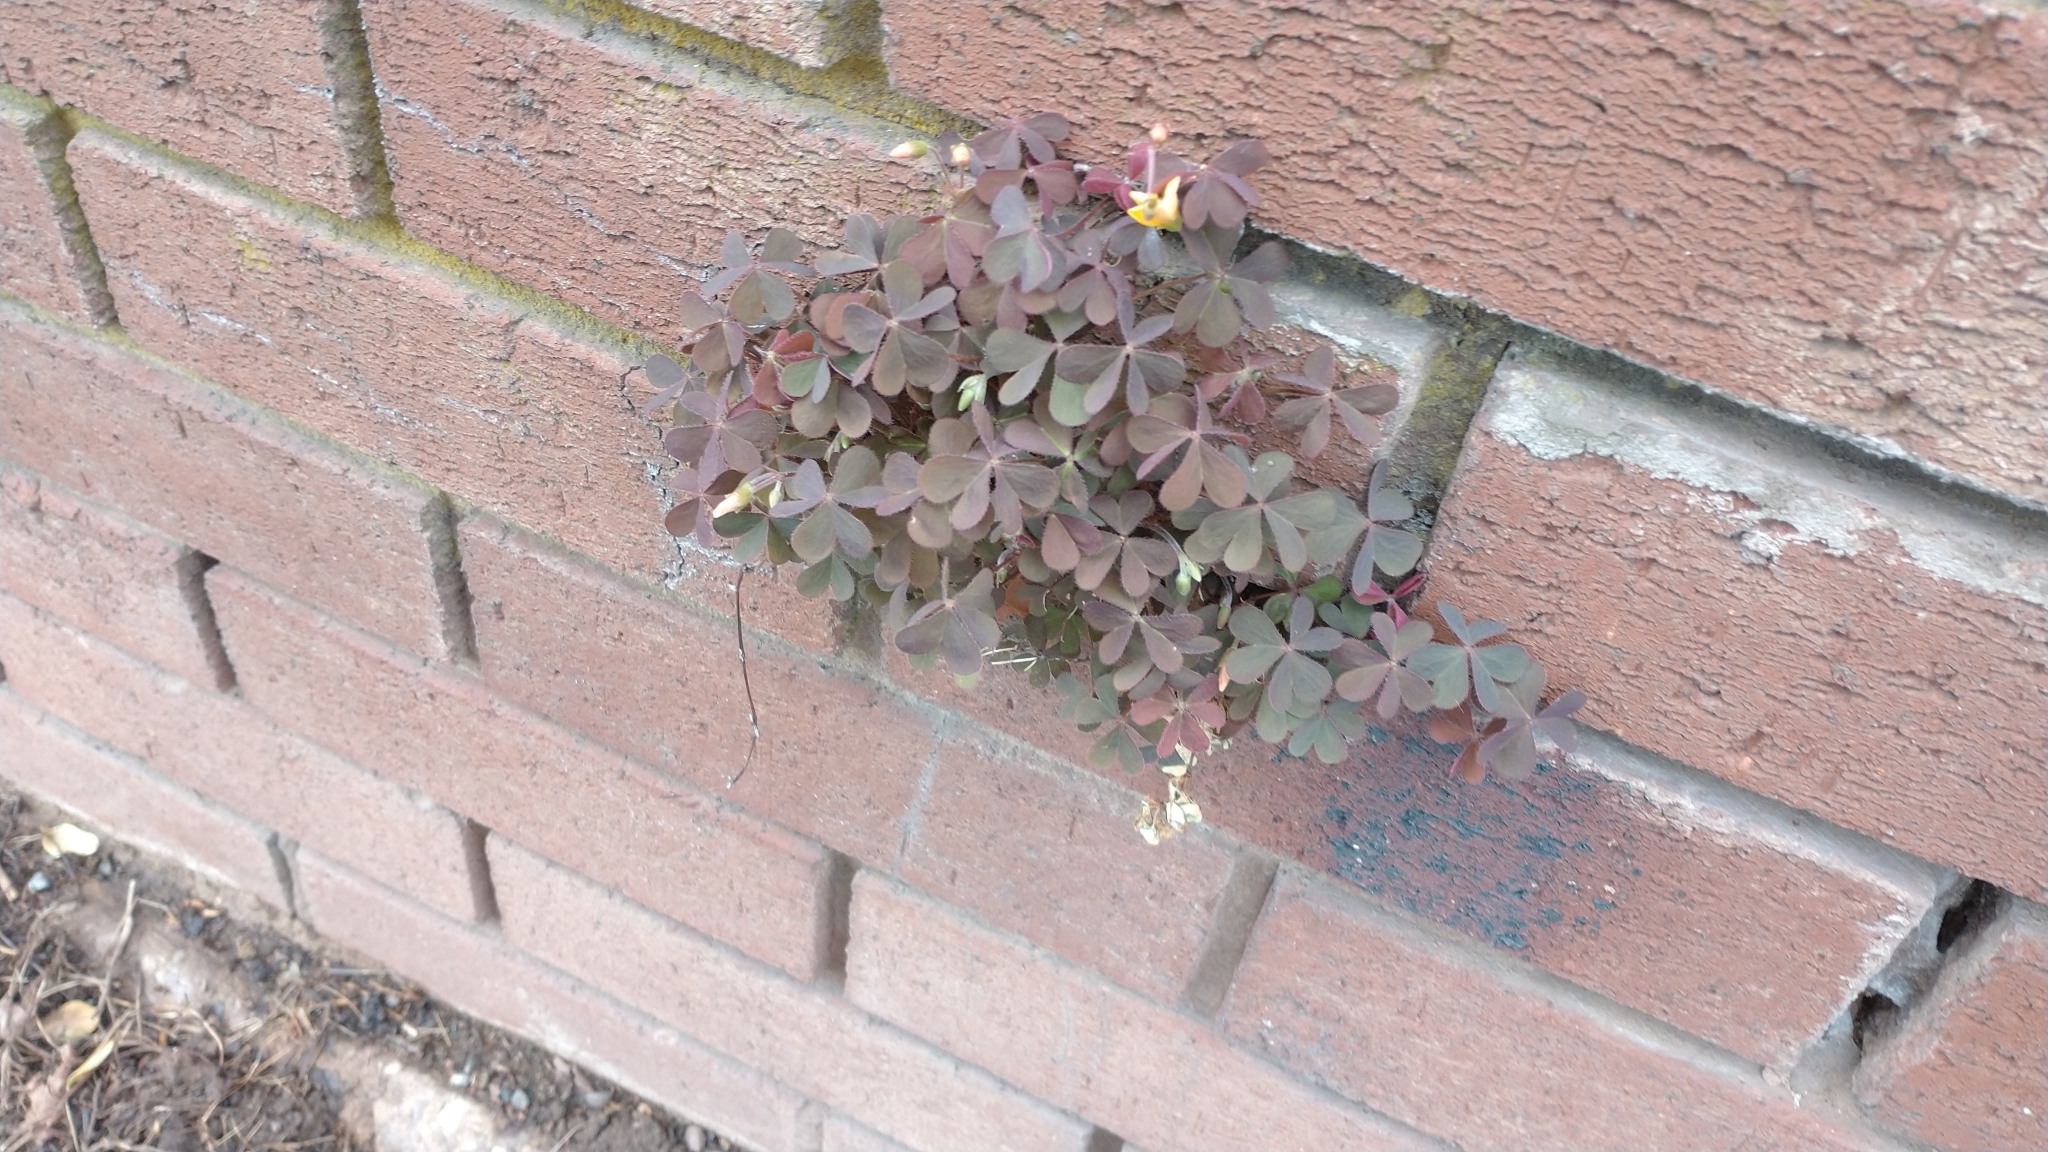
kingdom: Plantae
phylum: Tracheophyta
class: Magnoliopsida
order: Oxalidales
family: Oxalidaceae
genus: Oxalis
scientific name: Oxalis corniculata
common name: Procumbent yellow-sorrel
